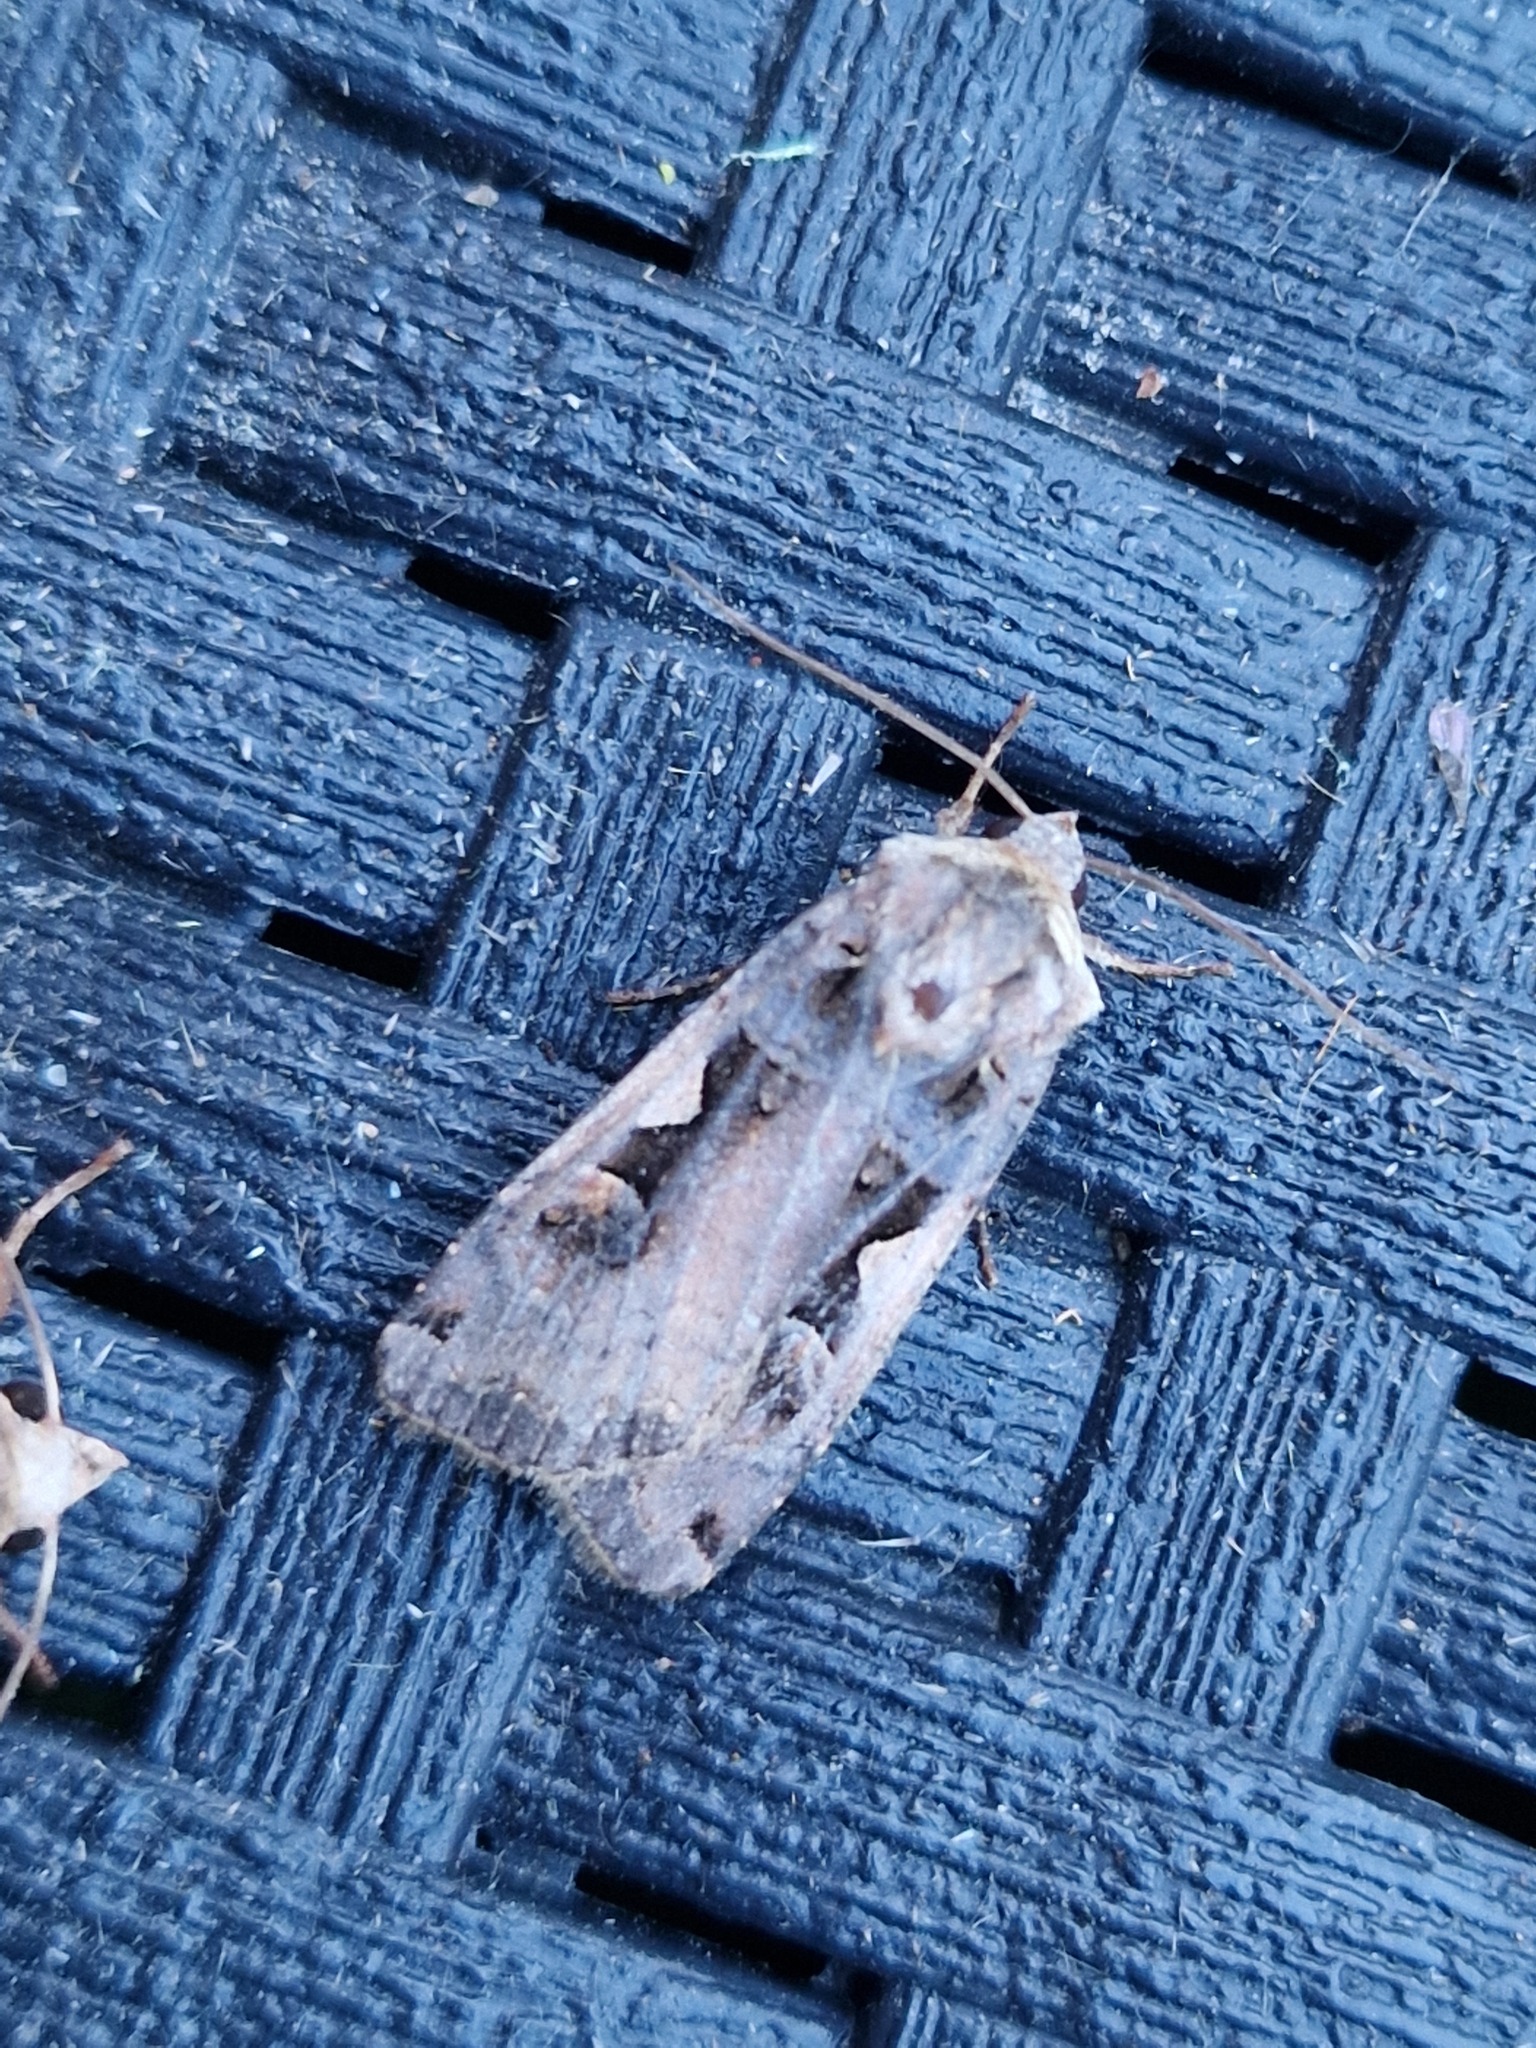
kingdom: Animalia
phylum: Arthropoda
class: Insecta
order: Lepidoptera
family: Noctuidae
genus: Xestia
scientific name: Xestia c-nigrum
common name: Setaceous hebrew character
